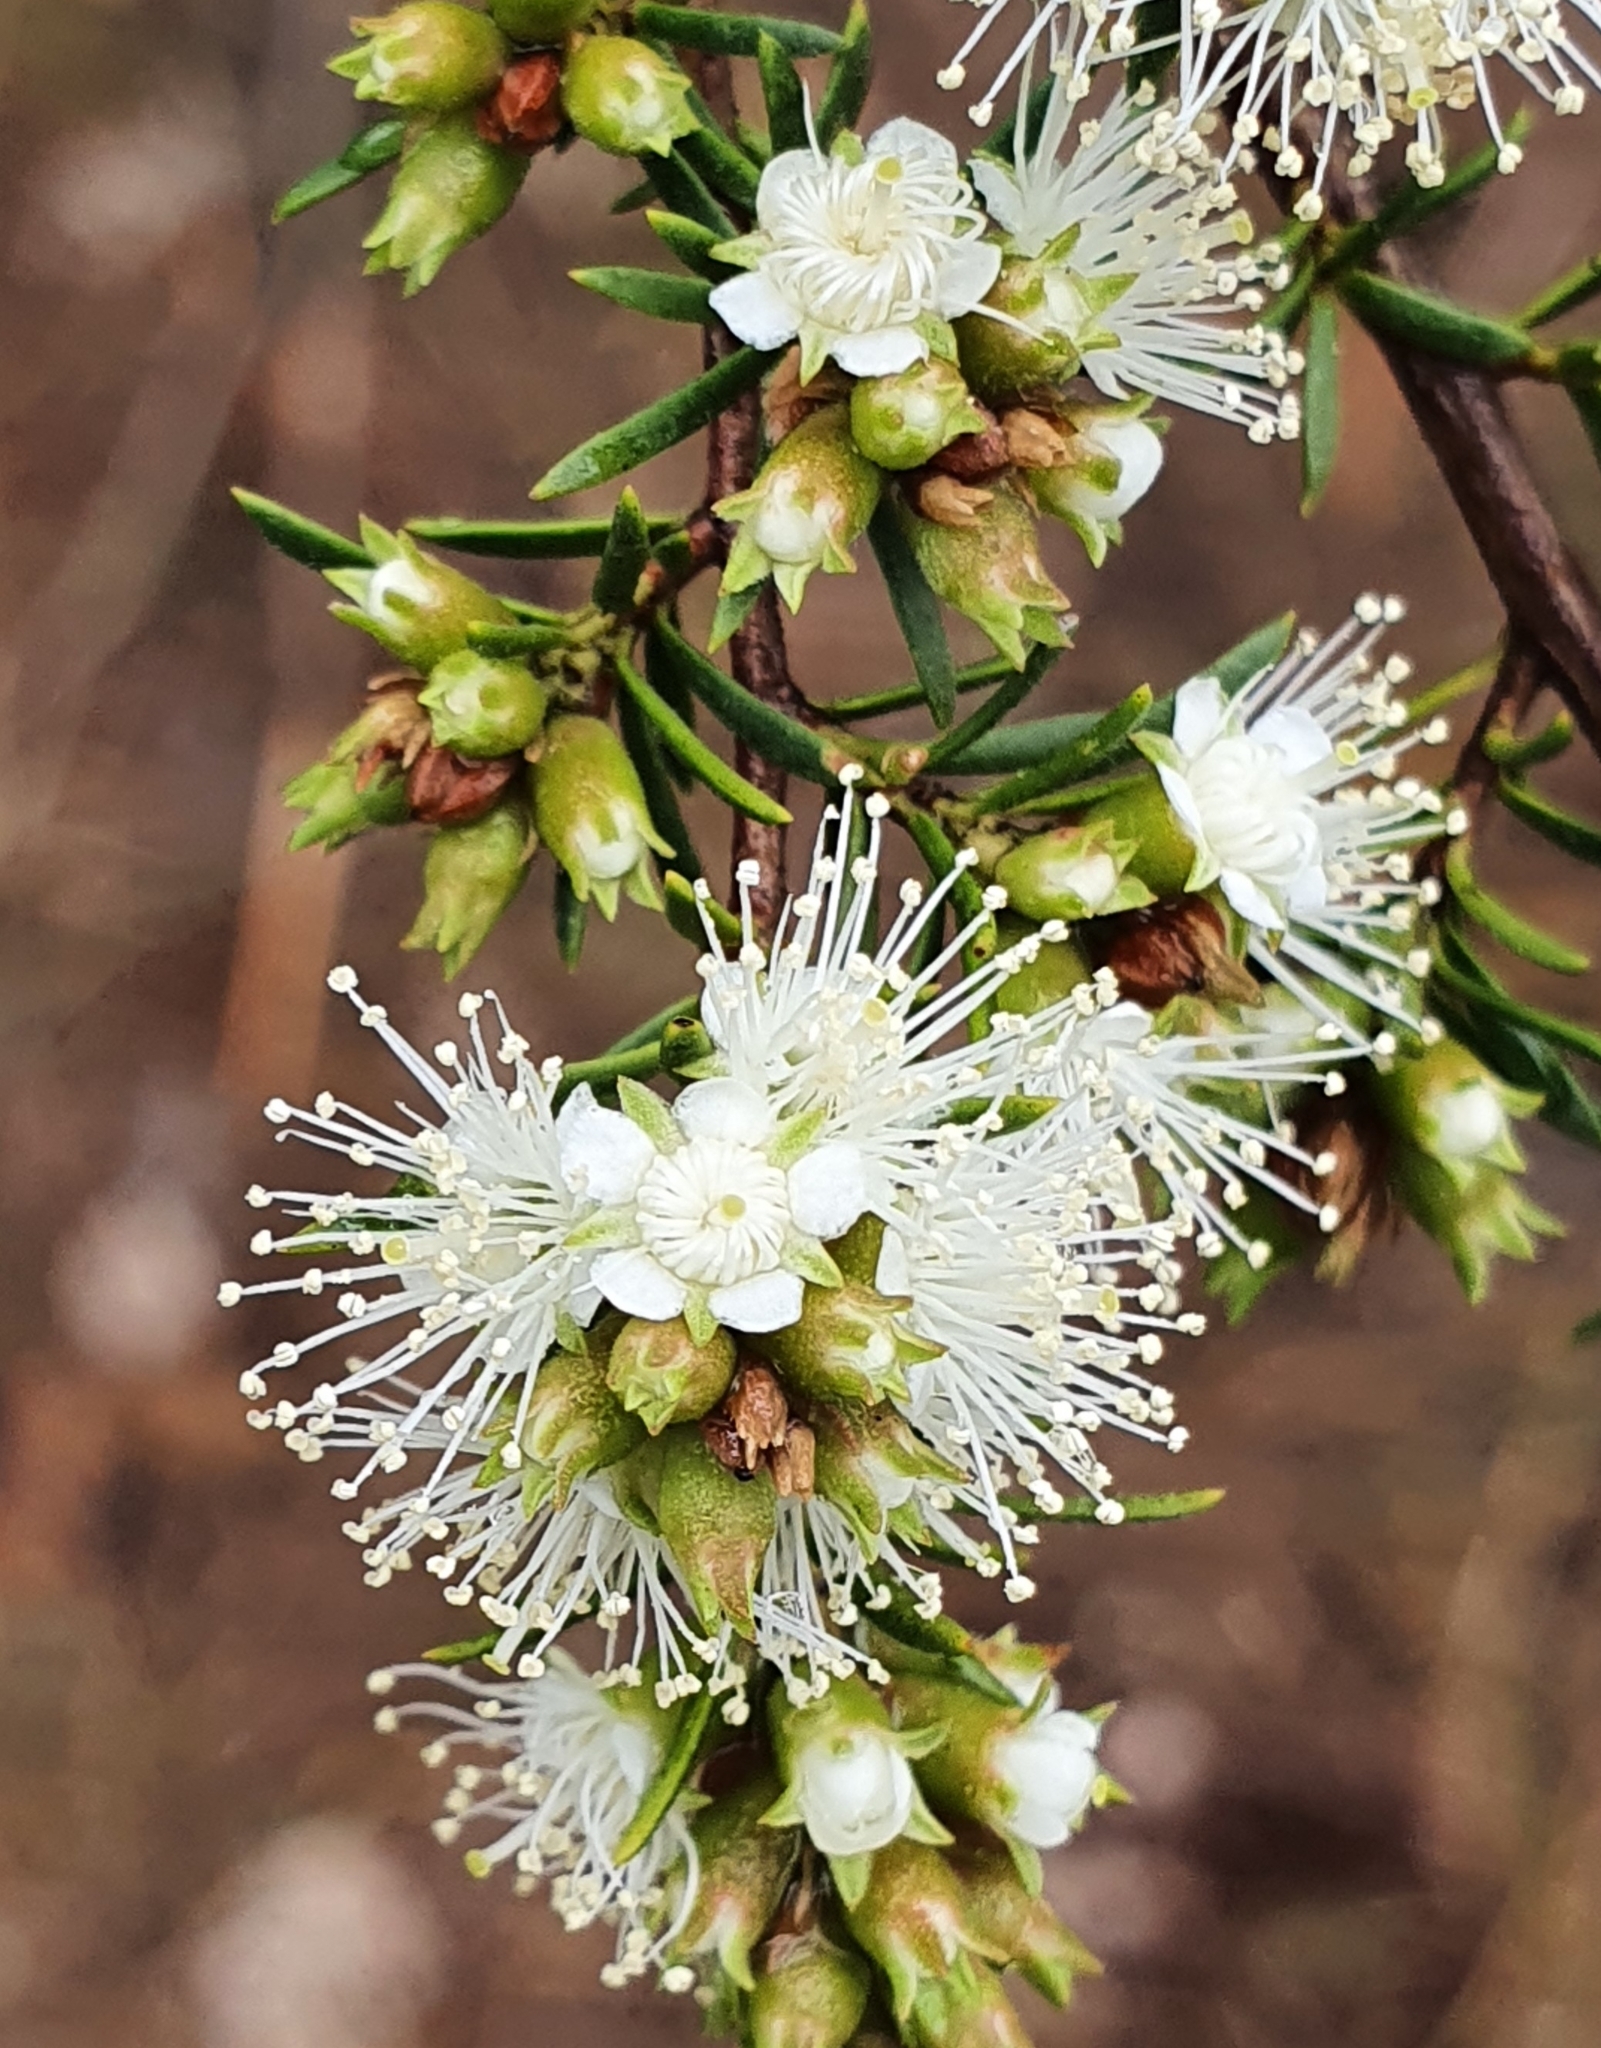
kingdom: Plantae
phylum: Tracheophyta
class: Magnoliopsida
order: Myrtales
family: Myrtaceae
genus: Kunzea
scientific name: Kunzea ambigua
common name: Tickbush
